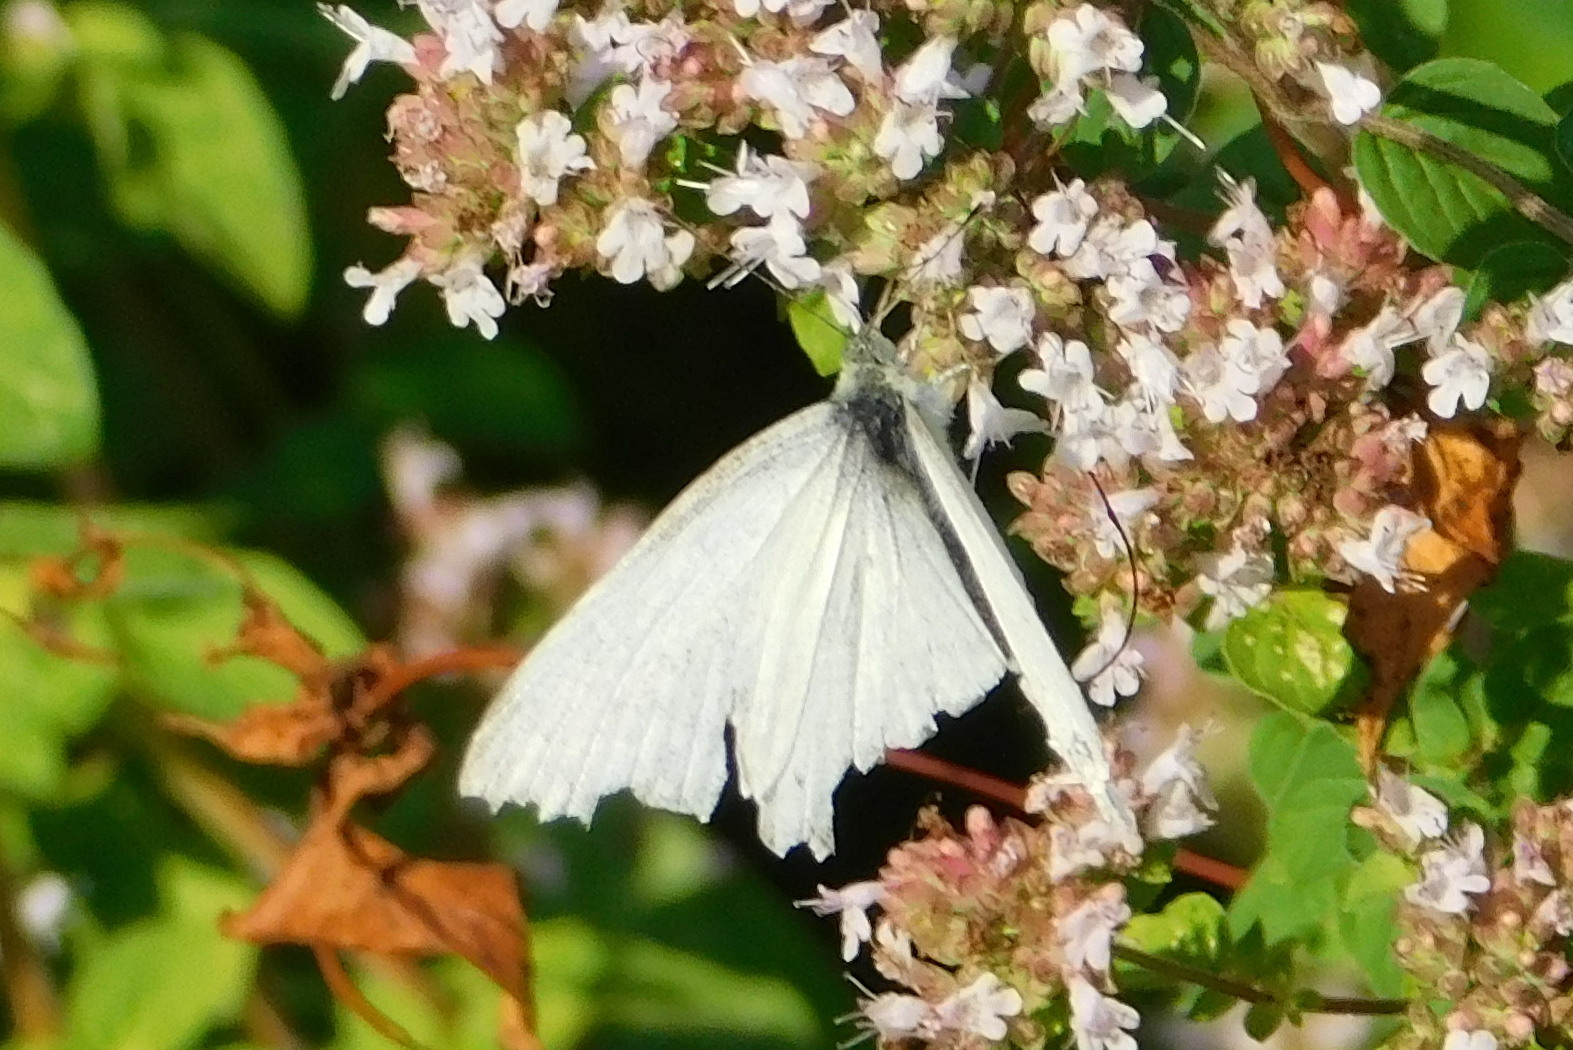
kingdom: Animalia
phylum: Arthropoda
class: Insecta
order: Lepidoptera
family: Pieridae
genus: Pieris
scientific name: Pieris rapae
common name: Small white
